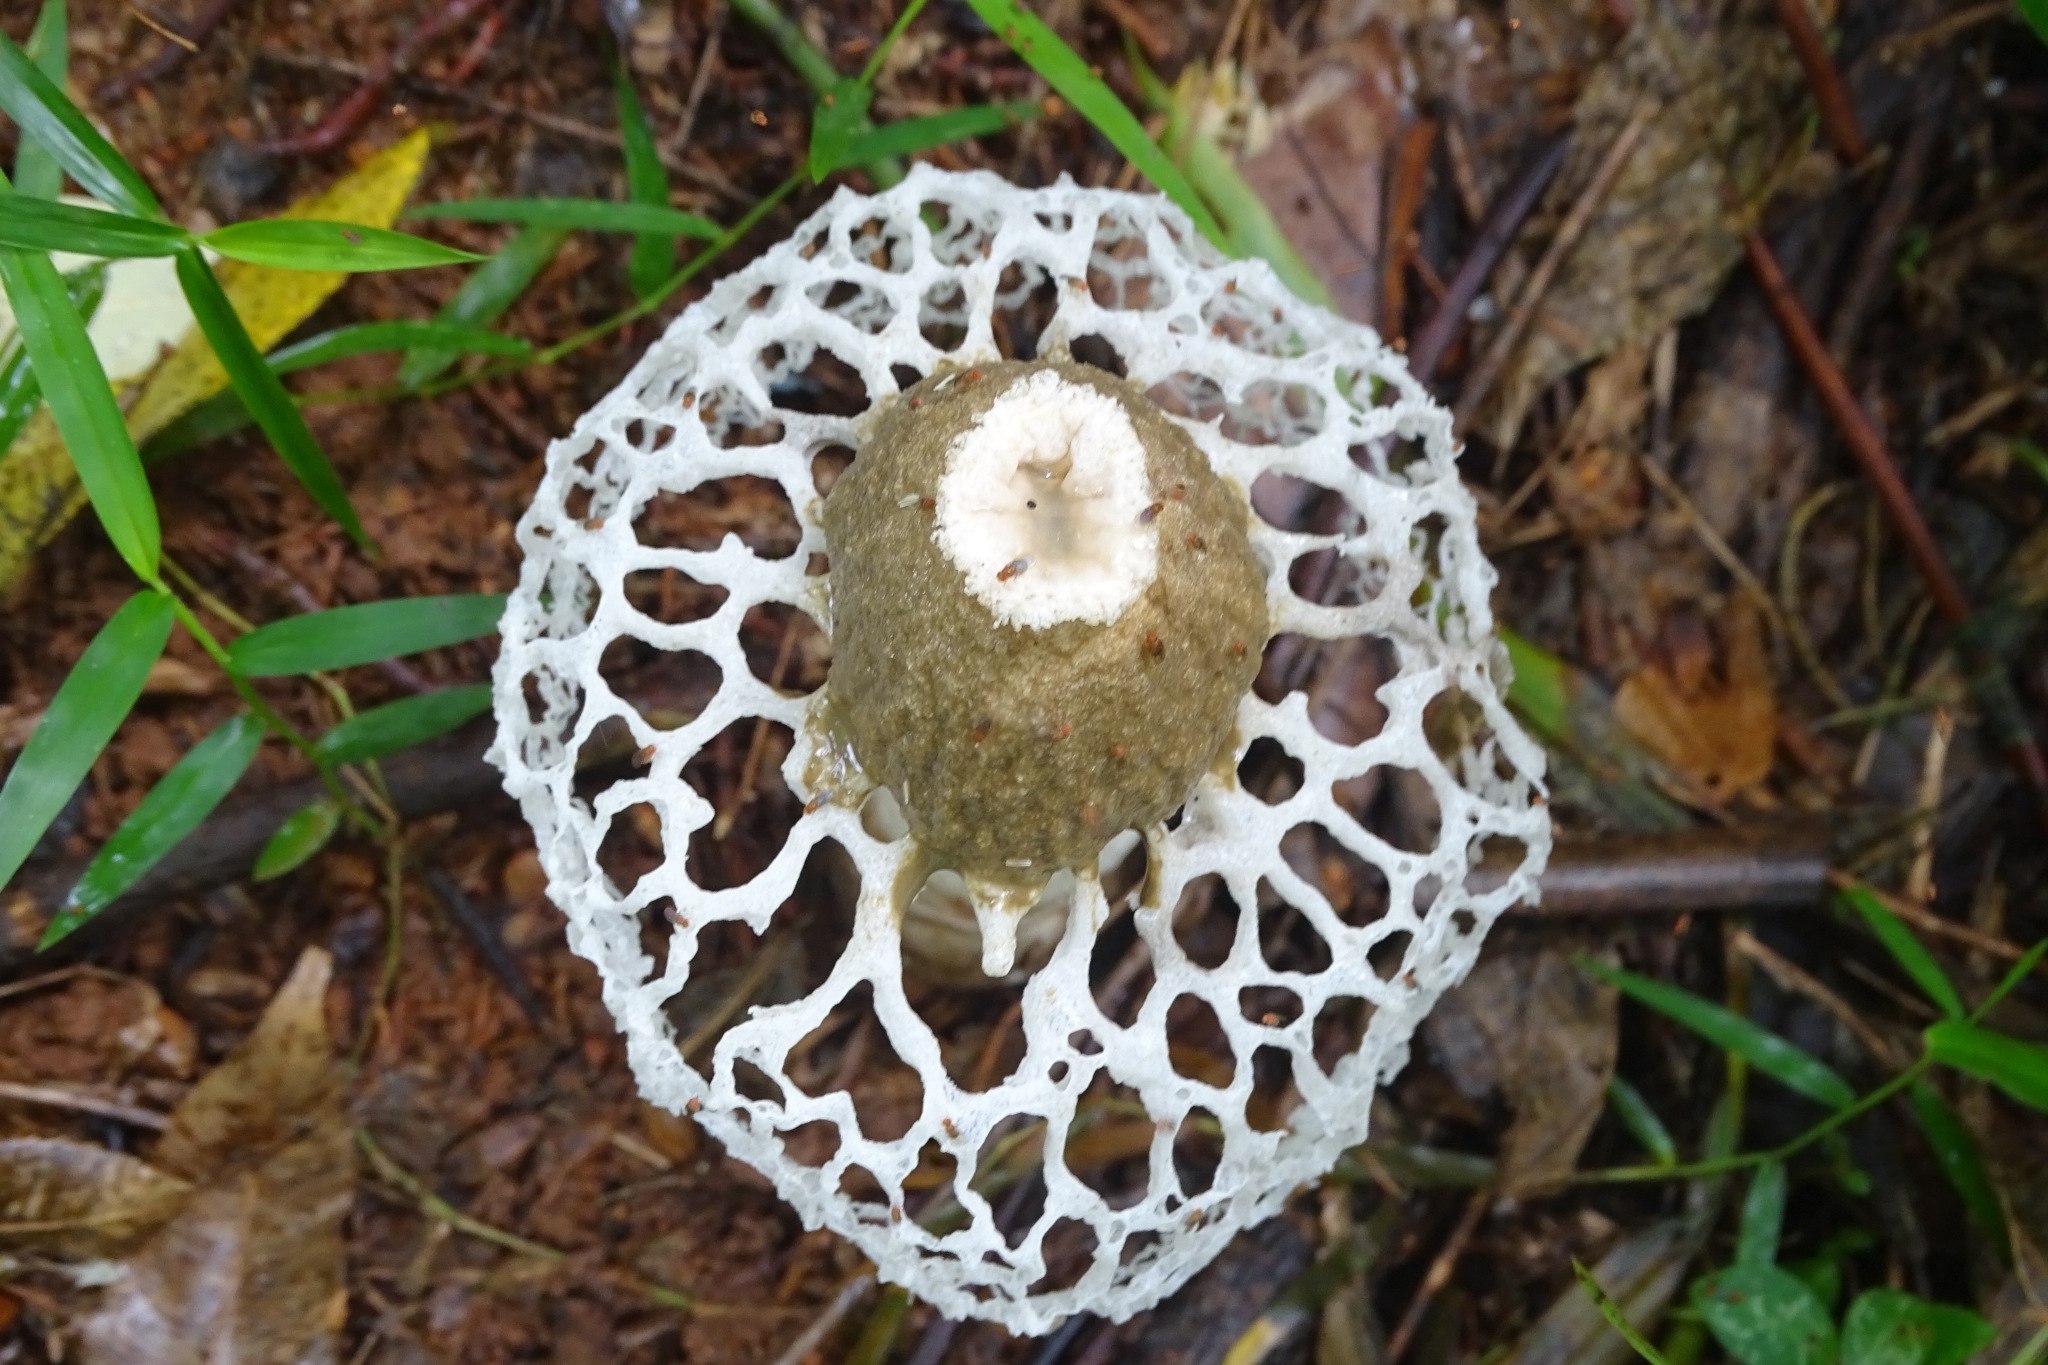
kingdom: Fungi
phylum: Basidiomycota
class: Agaricomycetes
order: Phallales
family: Phallaceae
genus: Phallus
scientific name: Phallus merulinus
